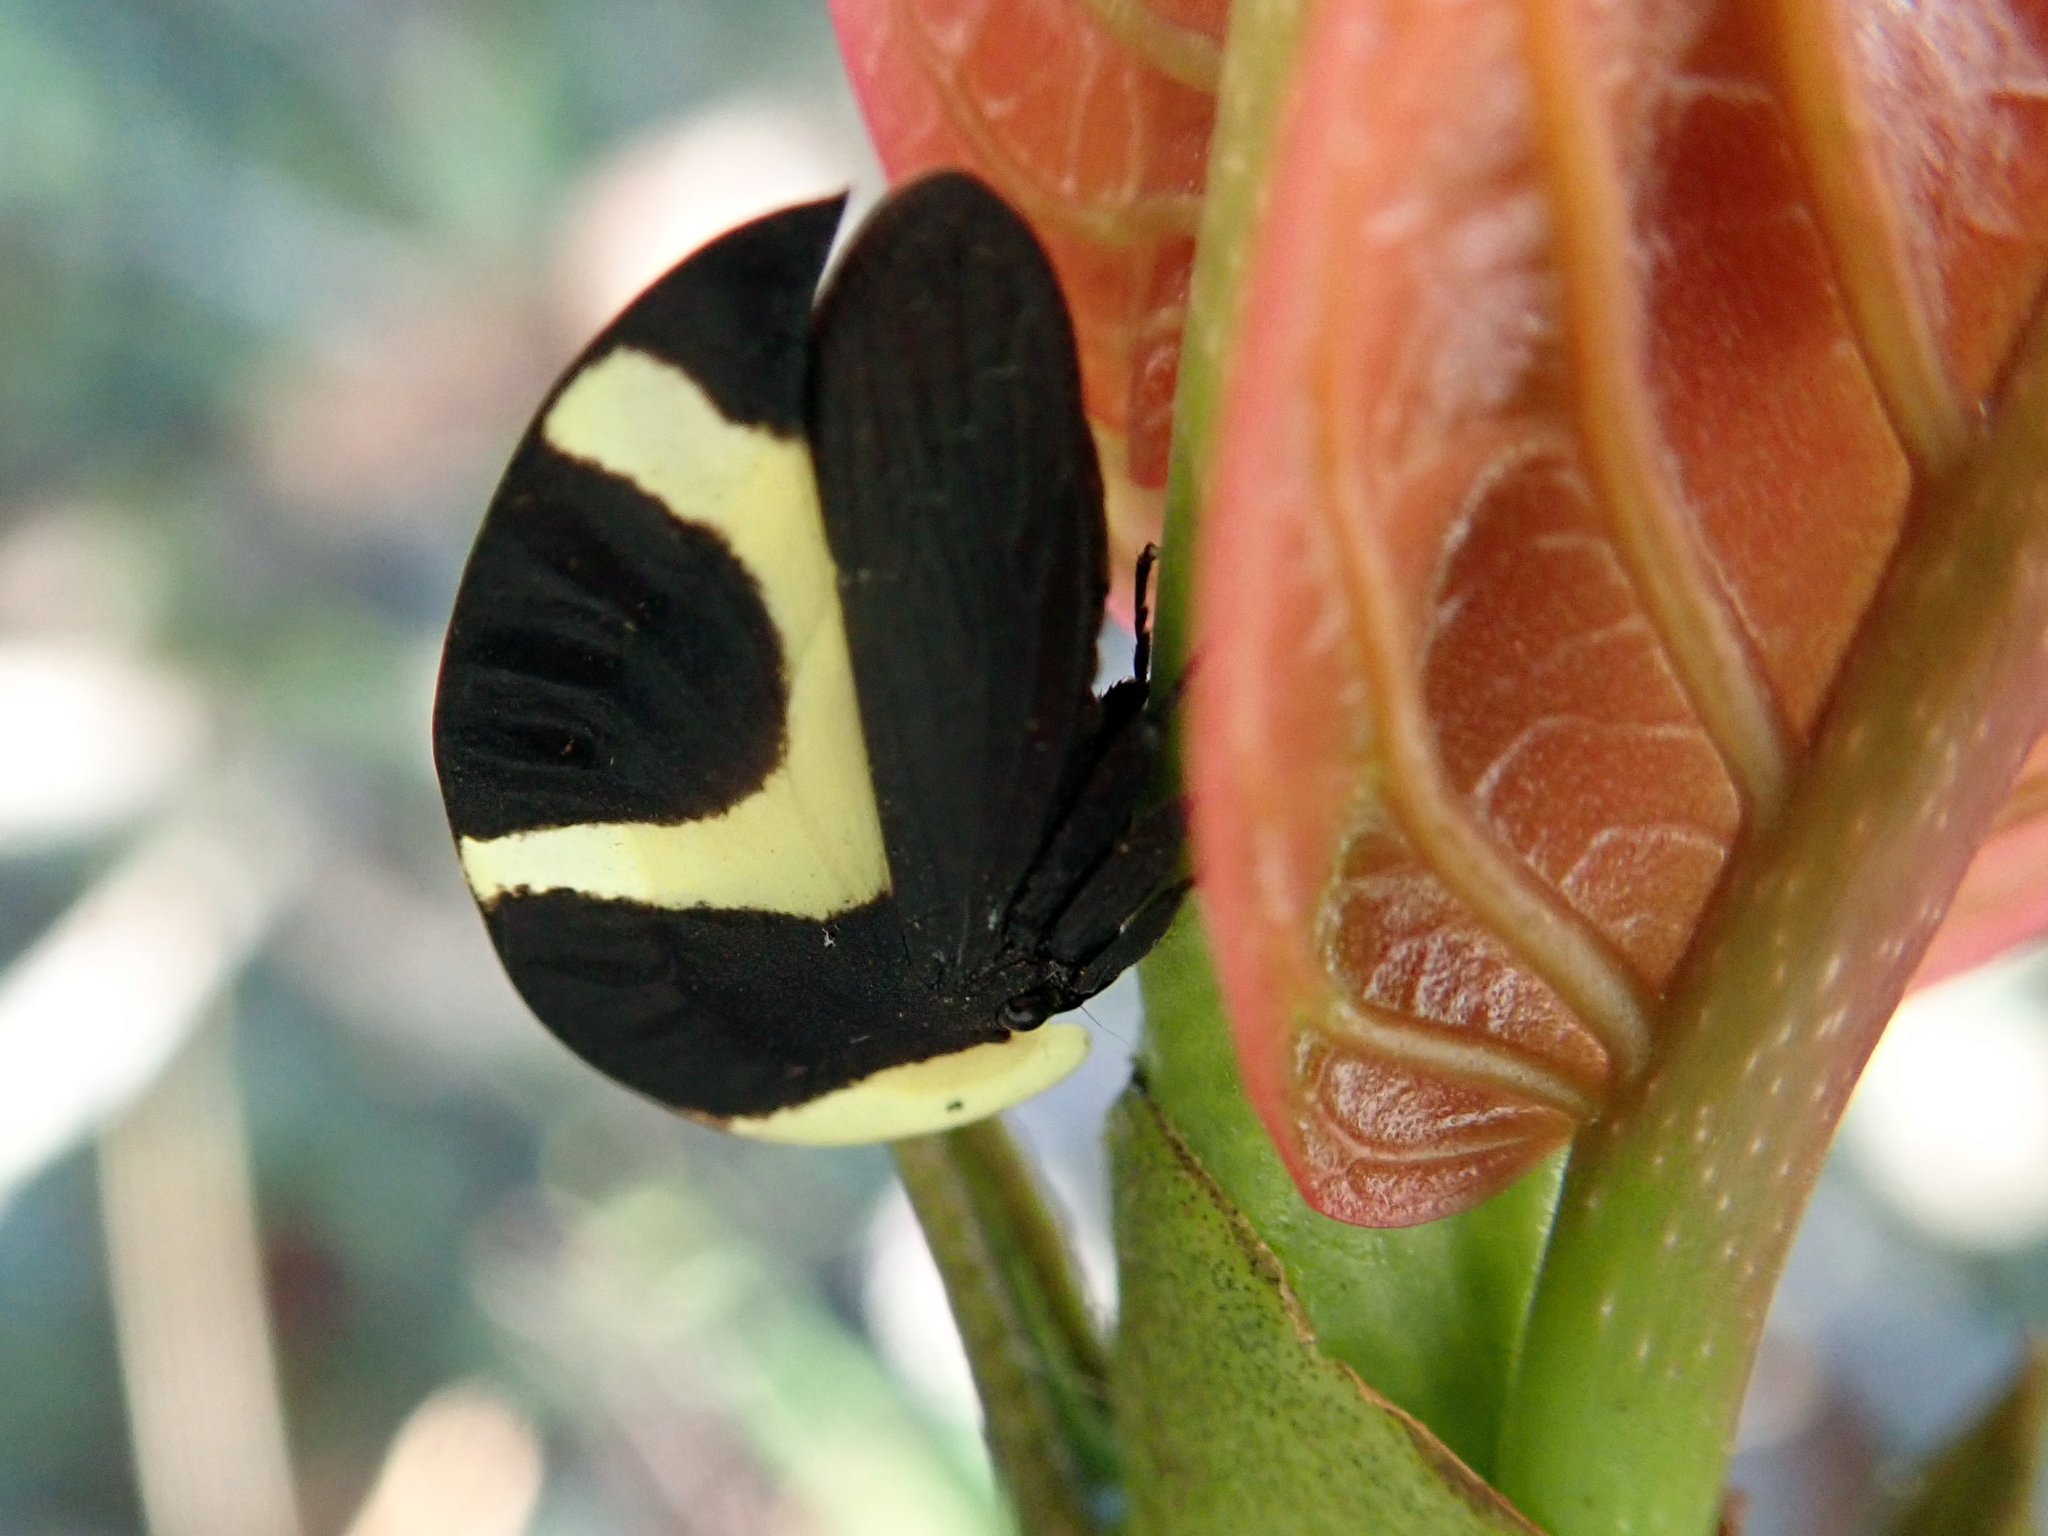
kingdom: Animalia
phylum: Arthropoda
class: Insecta
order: Hemiptera
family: Membracidae
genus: Membracis
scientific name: Membracis celsa
